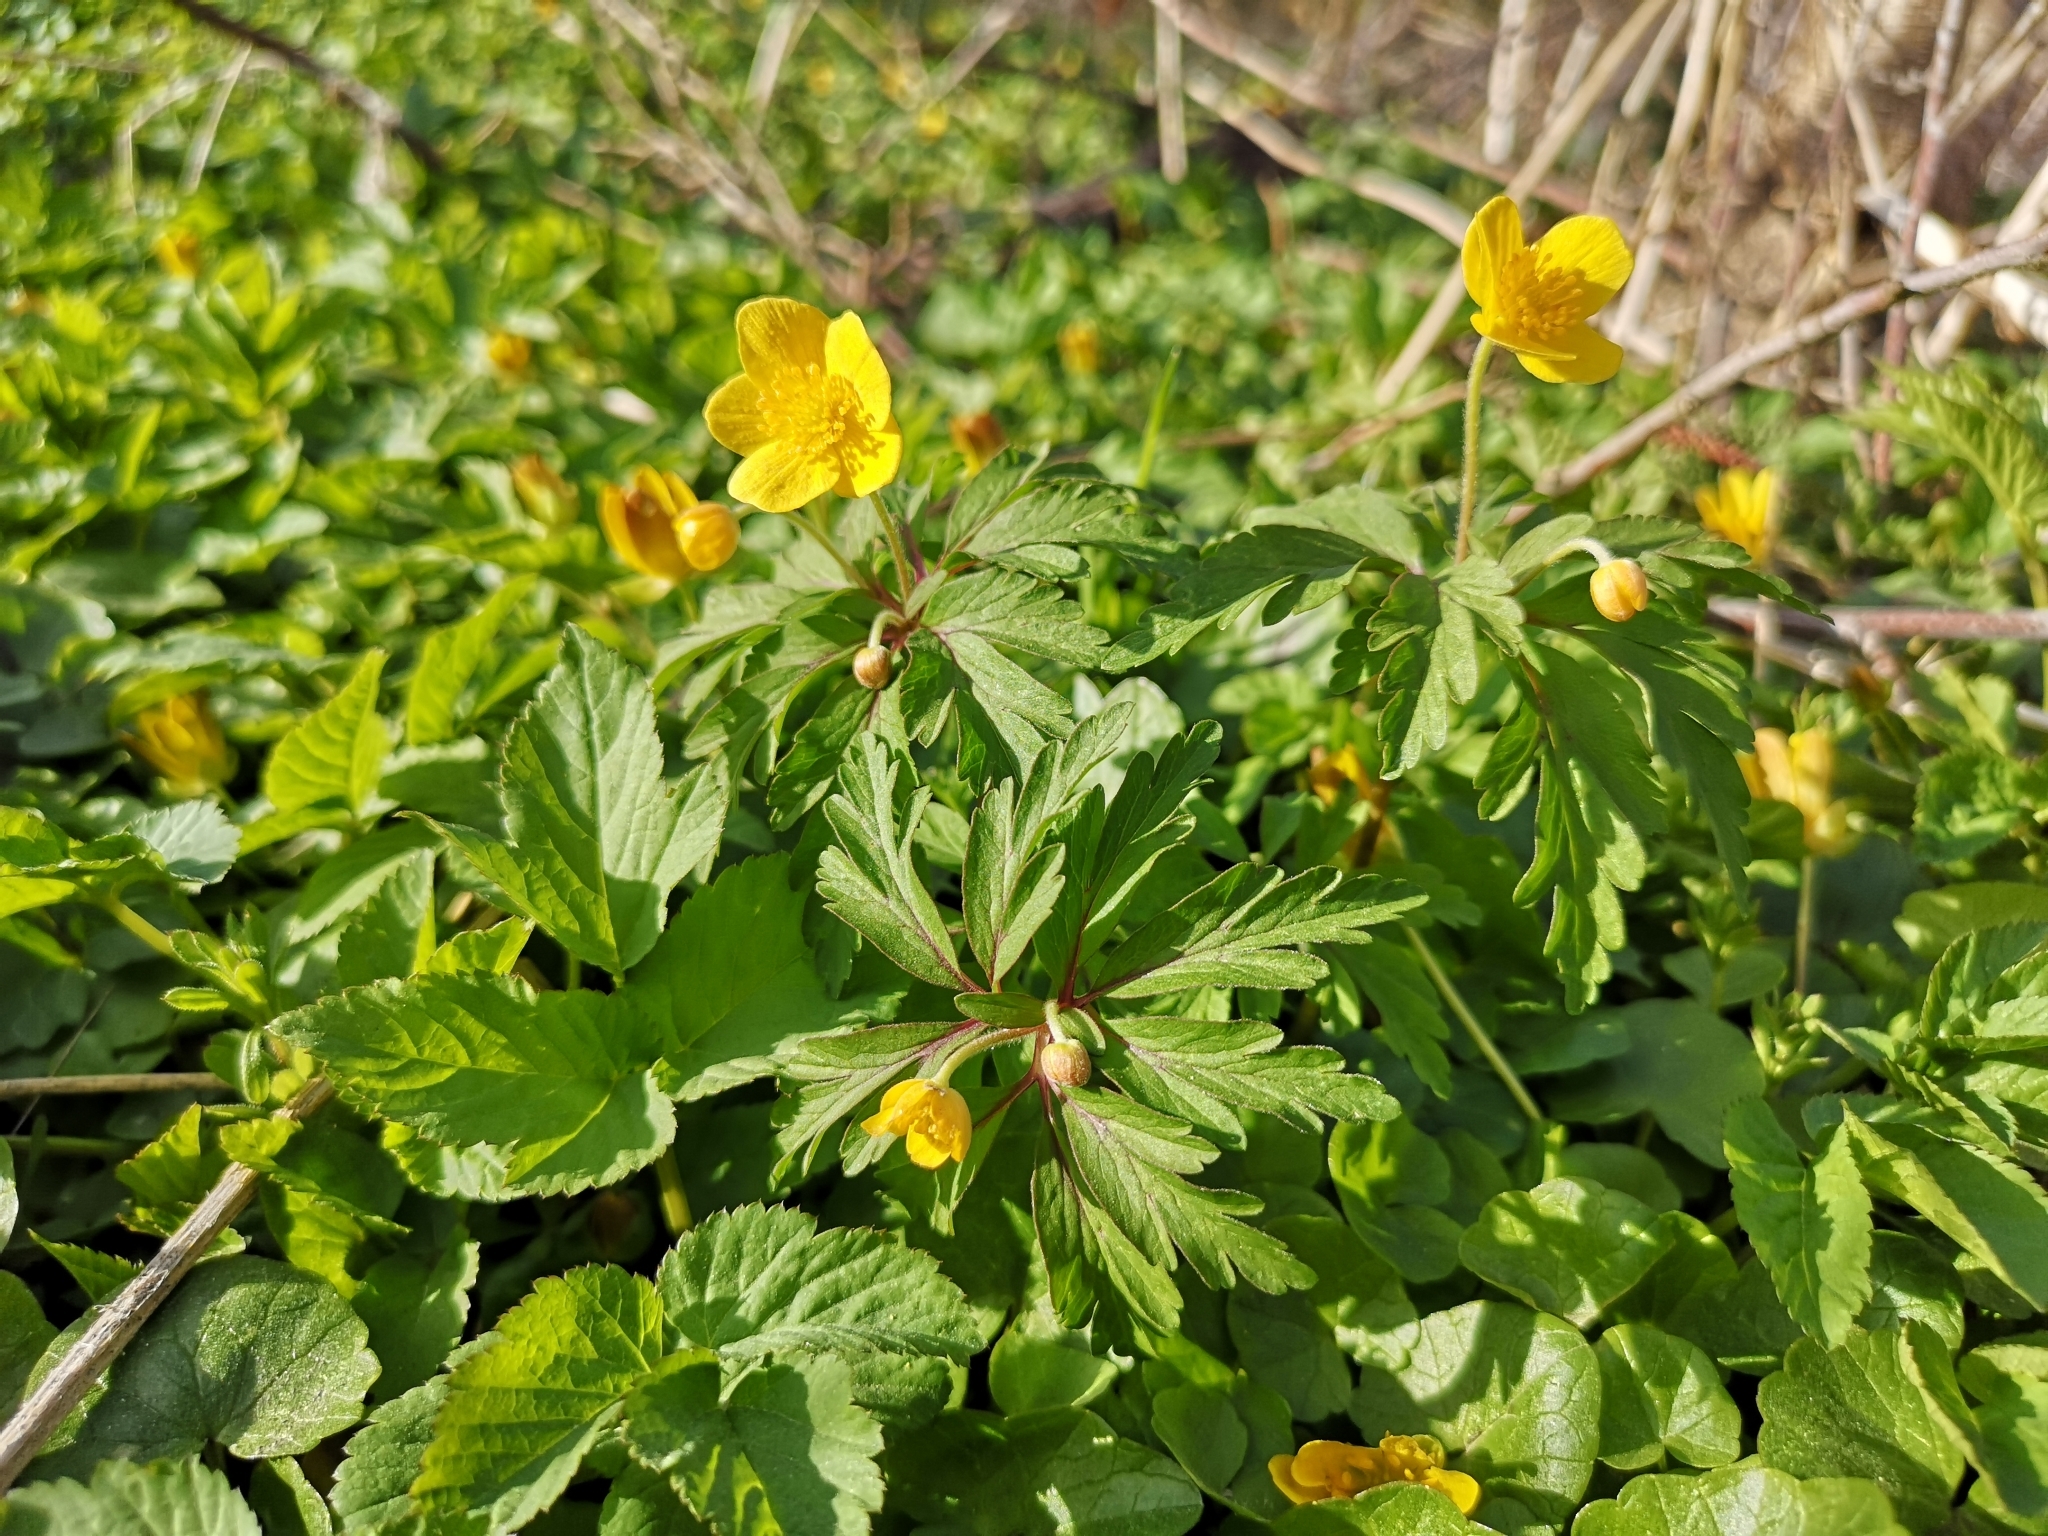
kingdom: Plantae
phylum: Tracheophyta
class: Magnoliopsida
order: Ranunculales
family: Ranunculaceae
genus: Anemone
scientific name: Anemone ranunculoides
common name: Yellow anemone
